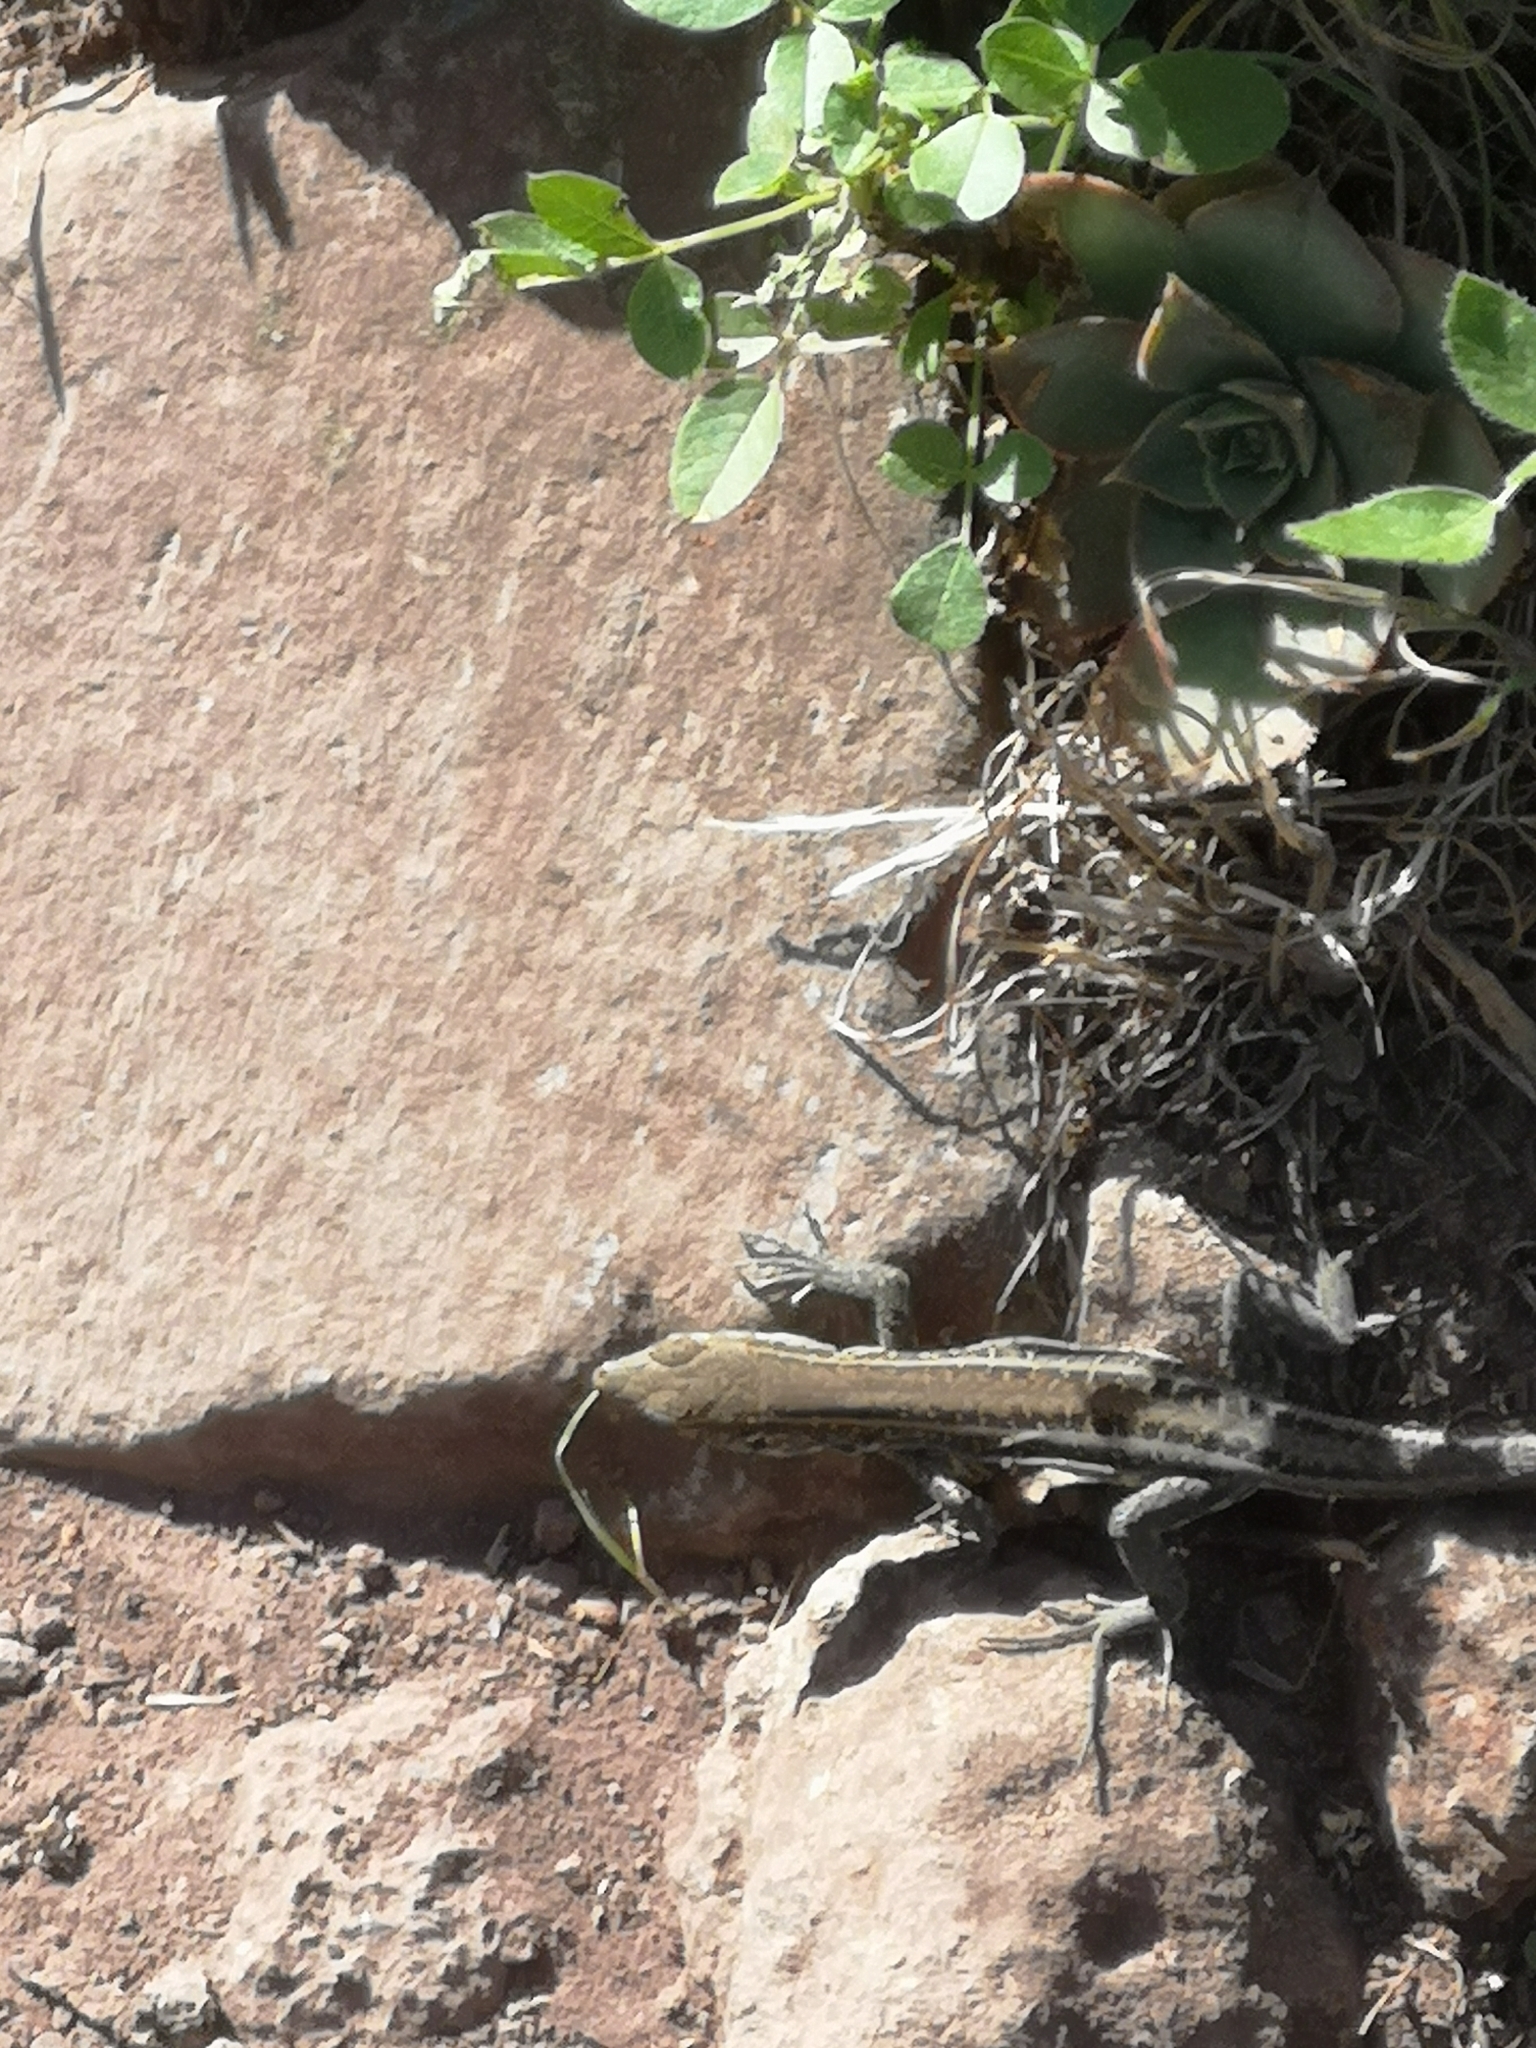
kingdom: Animalia
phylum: Chordata
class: Squamata
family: Lacertidae
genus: Gallotia
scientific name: Gallotia galloti
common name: Gallot's lizard
